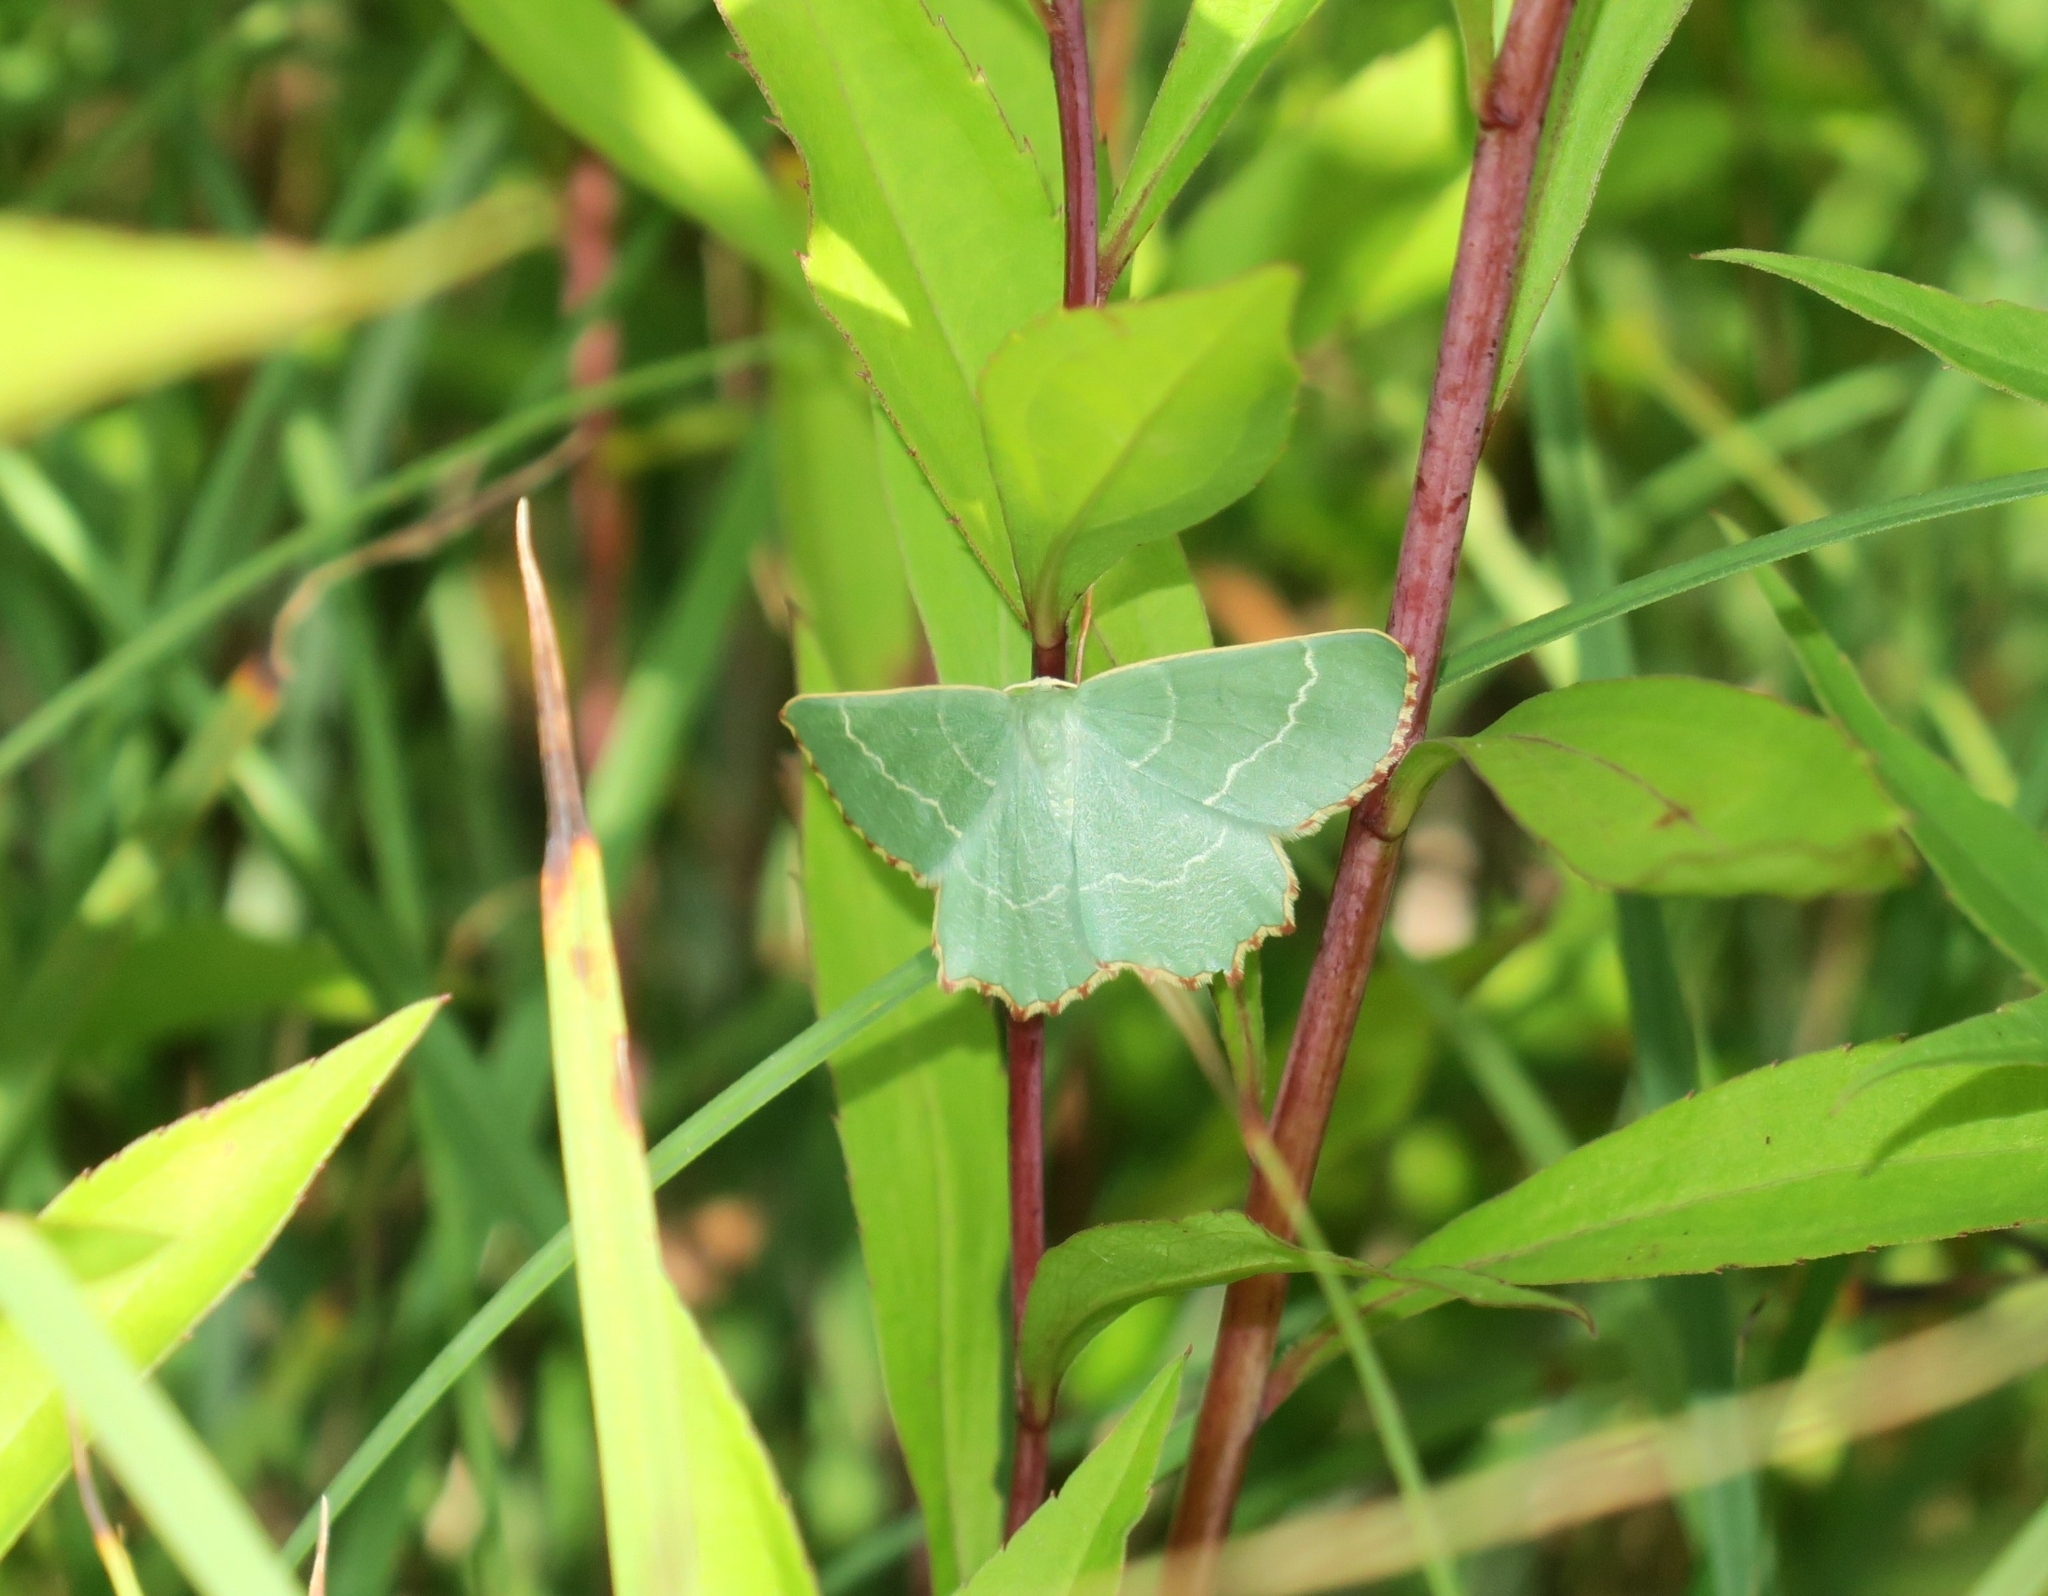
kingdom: Animalia
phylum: Arthropoda
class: Insecta
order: Lepidoptera
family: Geometridae
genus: Thalera
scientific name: Thalera fimbrialis
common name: Sussex emerald
